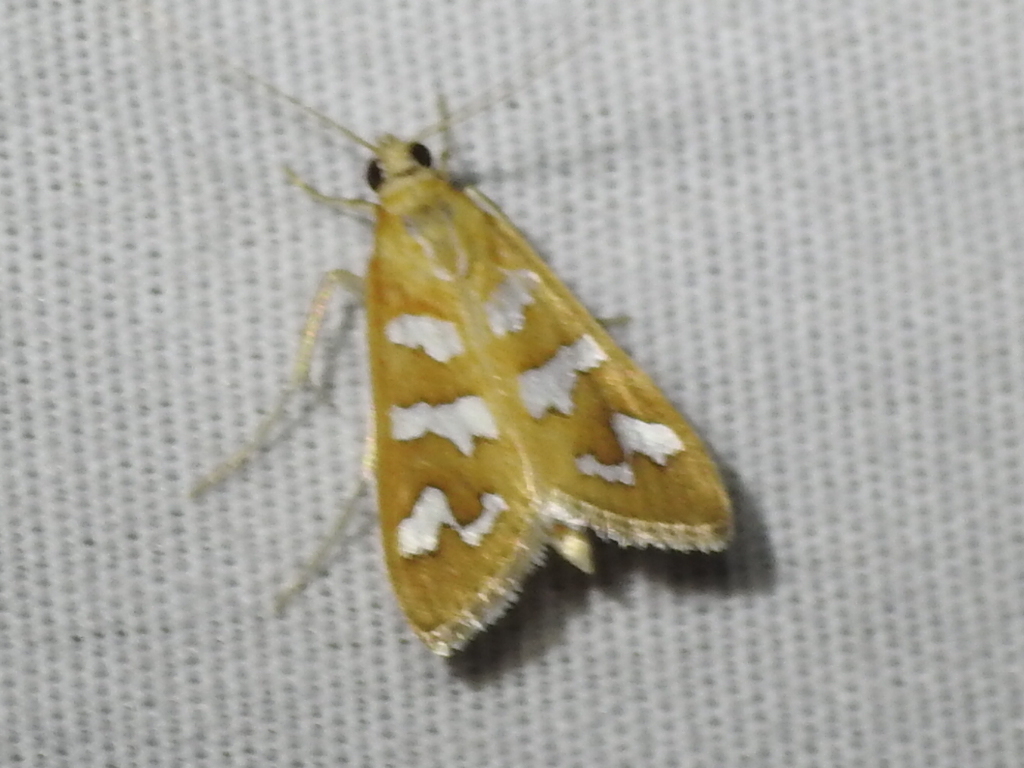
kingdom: Animalia
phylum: Arthropoda
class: Insecta
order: Lepidoptera
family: Crambidae
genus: Diastictis
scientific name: Diastictis fracturalis
